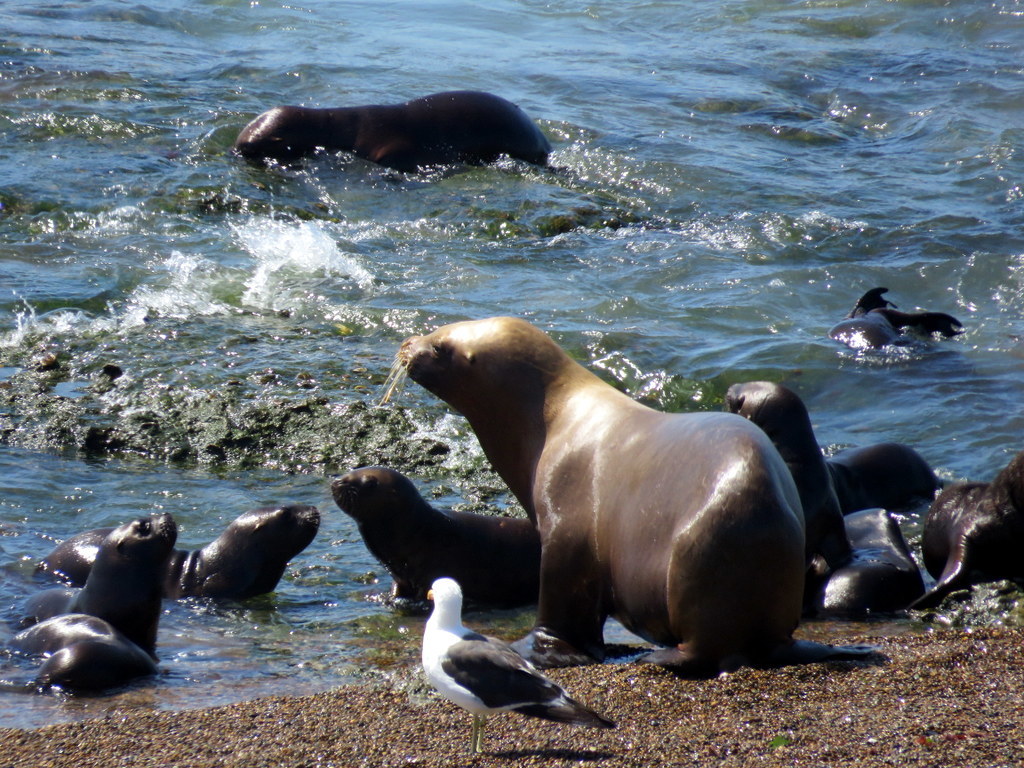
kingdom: Animalia
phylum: Chordata
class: Mammalia
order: Carnivora
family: Otariidae
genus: Otaria
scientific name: Otaria byronia
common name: South american sea lion
